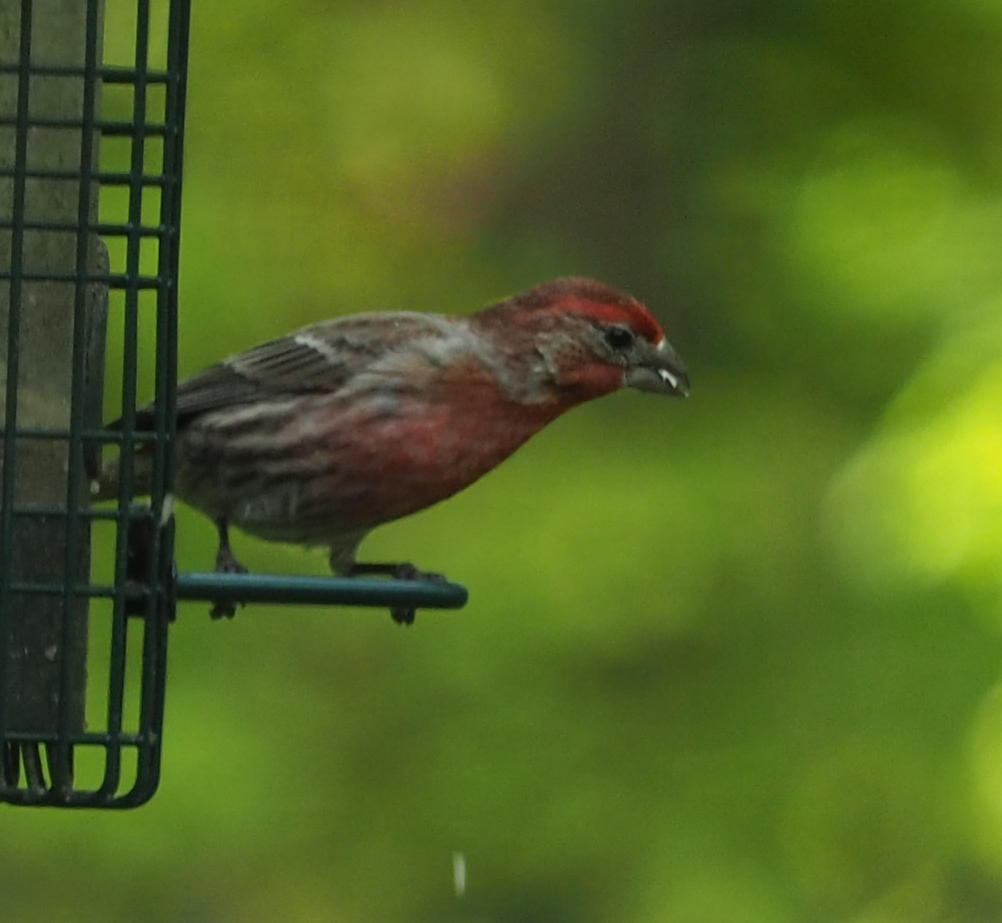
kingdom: Animalia
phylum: Chordata
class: Aves
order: Passeriformes
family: Fringillidae
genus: Haemorhous
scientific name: Haemorhous mexicanus
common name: House finch
